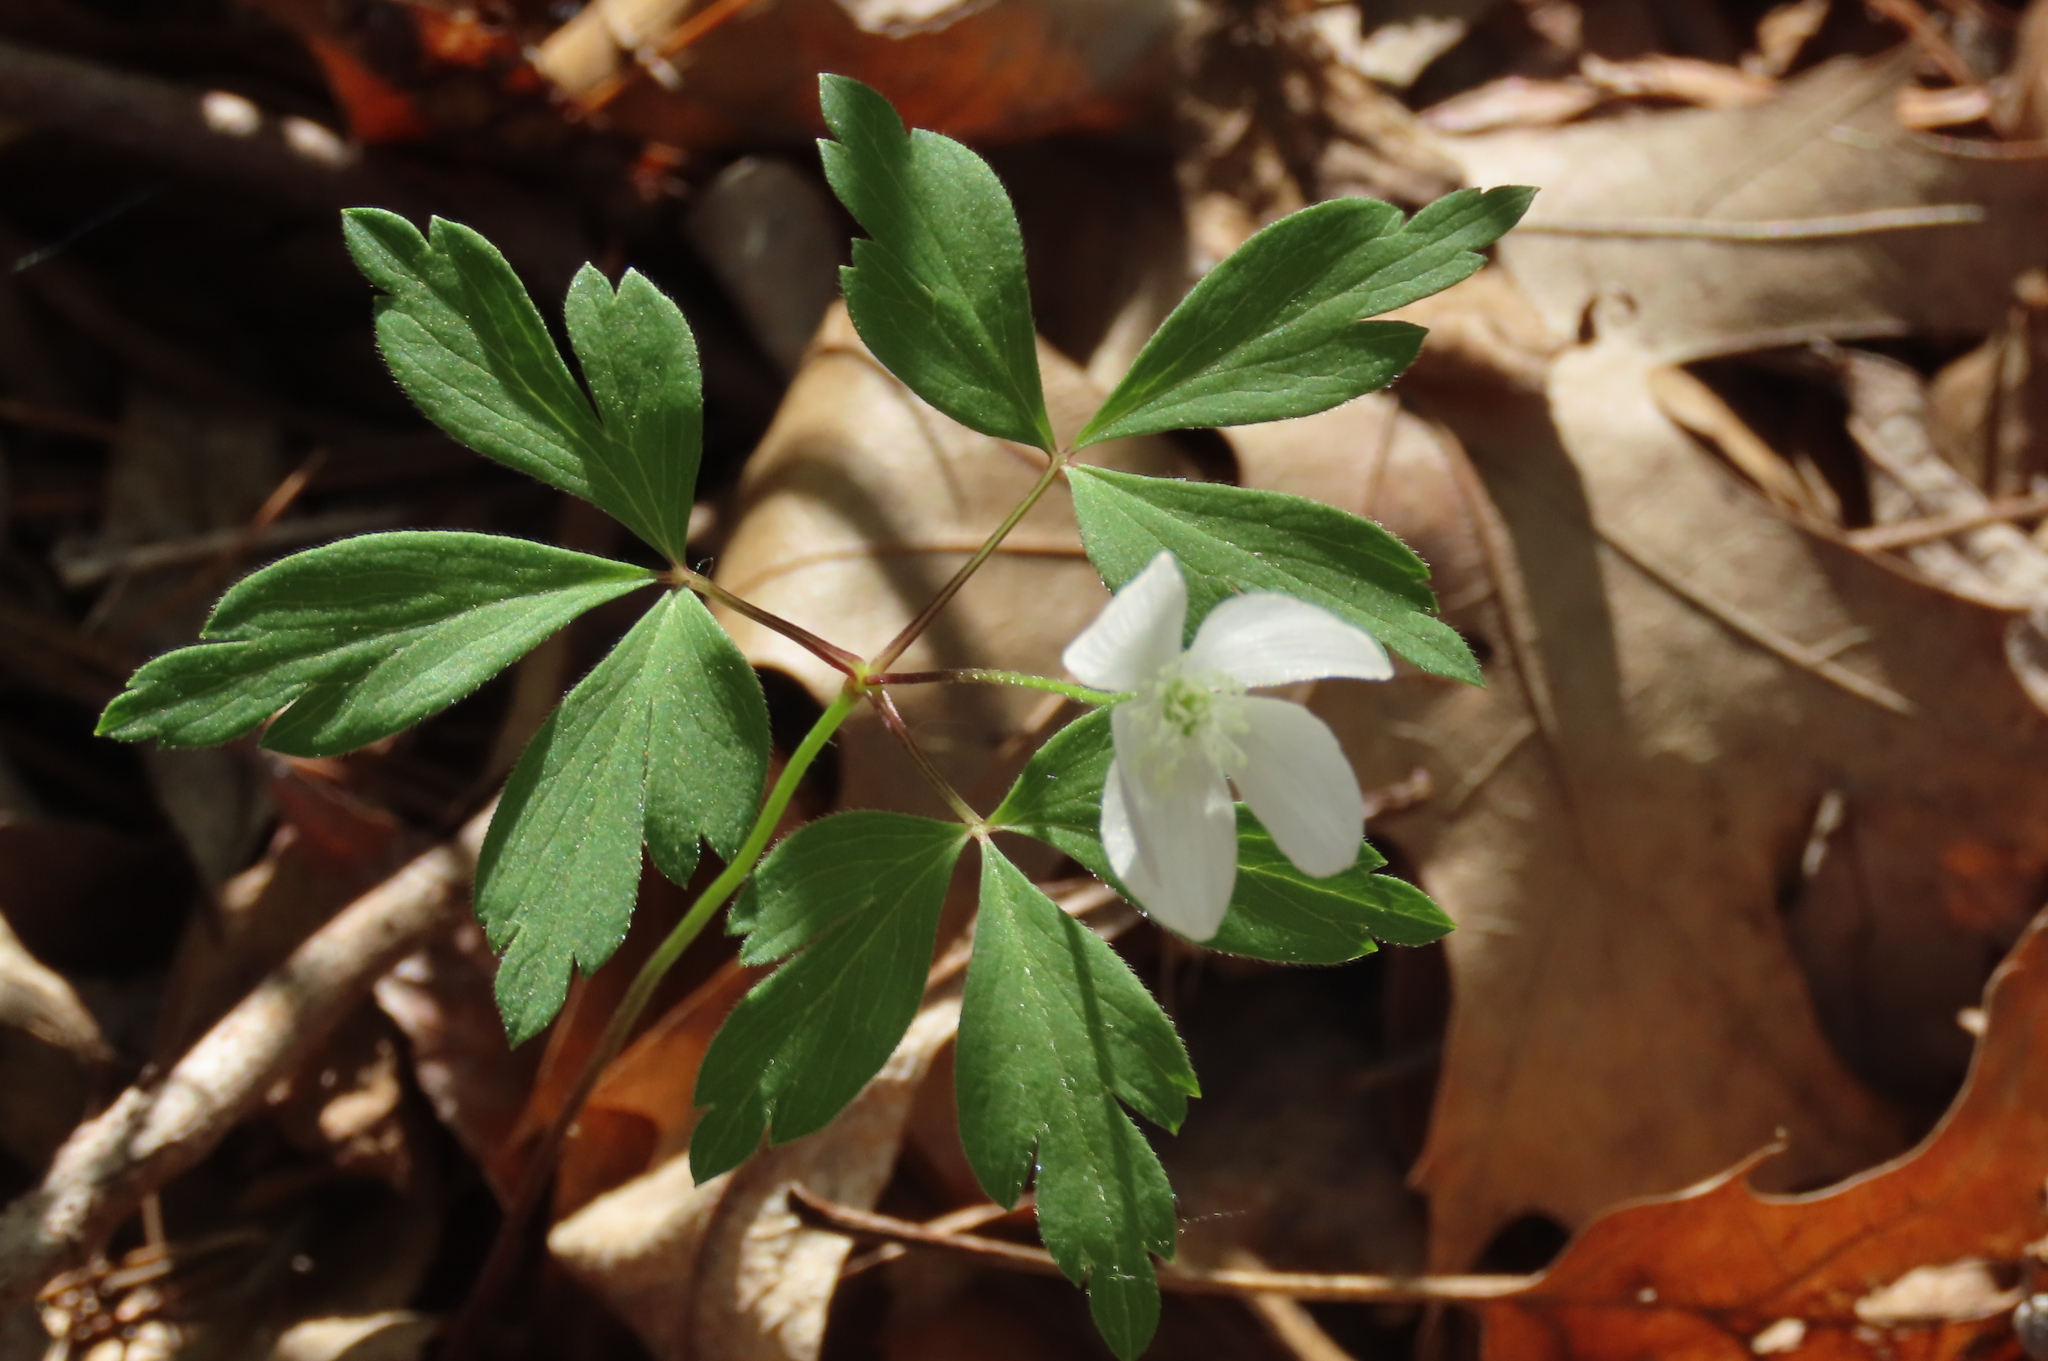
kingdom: Plantae
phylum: Tracheophyta
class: Magnoliopsida
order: Ranunculales
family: Ranunculaceae
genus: Anemone
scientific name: Anemone quinquefolia
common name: Wood anemone
